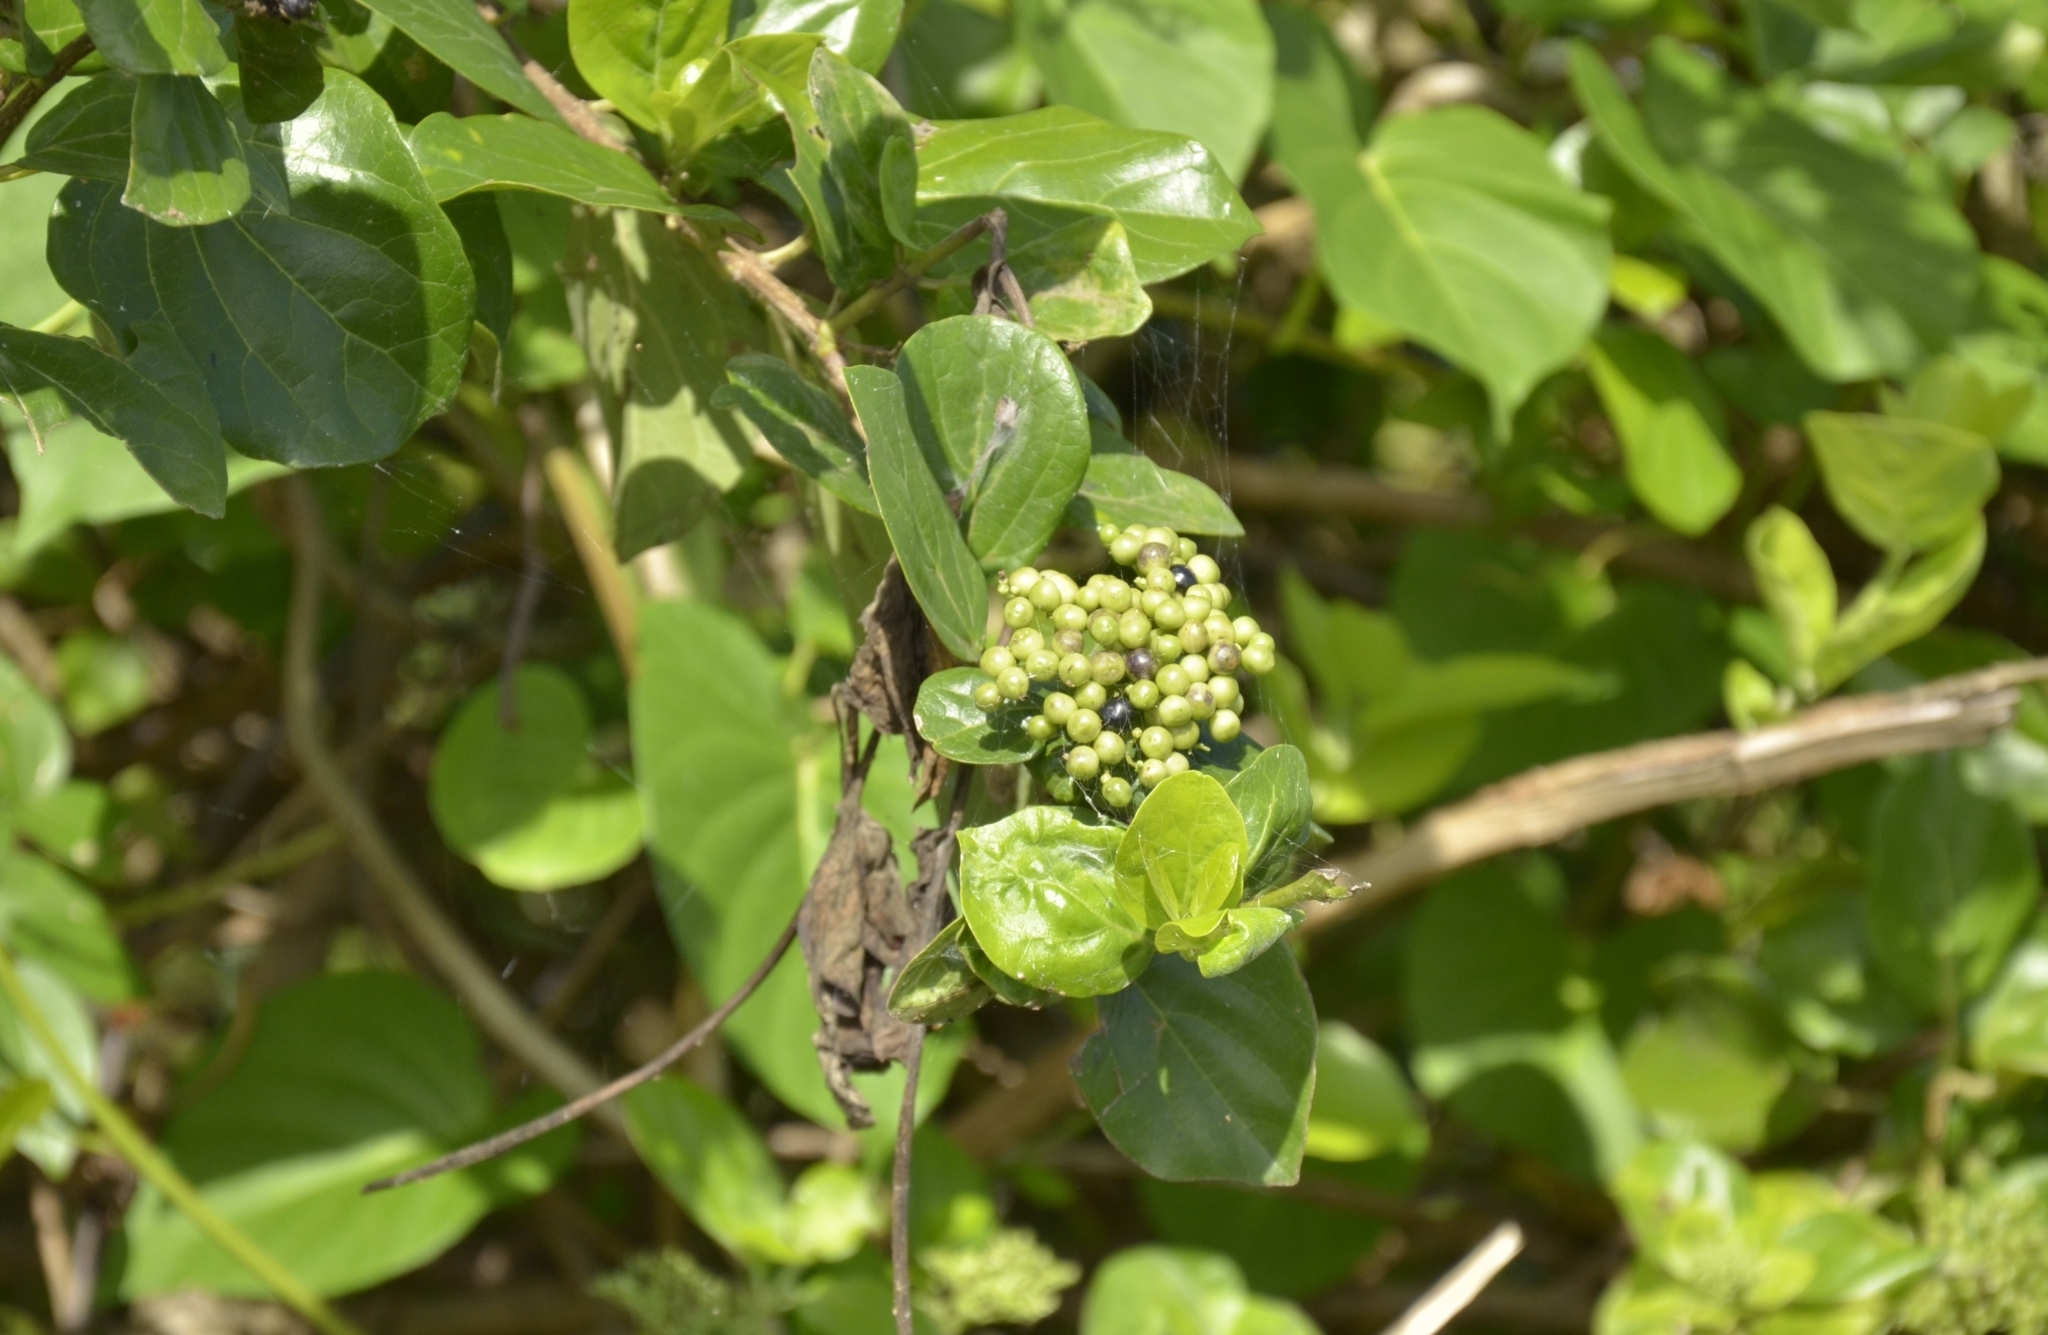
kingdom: Plantae
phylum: Tracheophyta
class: Magnoliopsida
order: Lamiales
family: Lamiaceae
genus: Premna
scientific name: Premna serratifolia
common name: Bastard guelder
